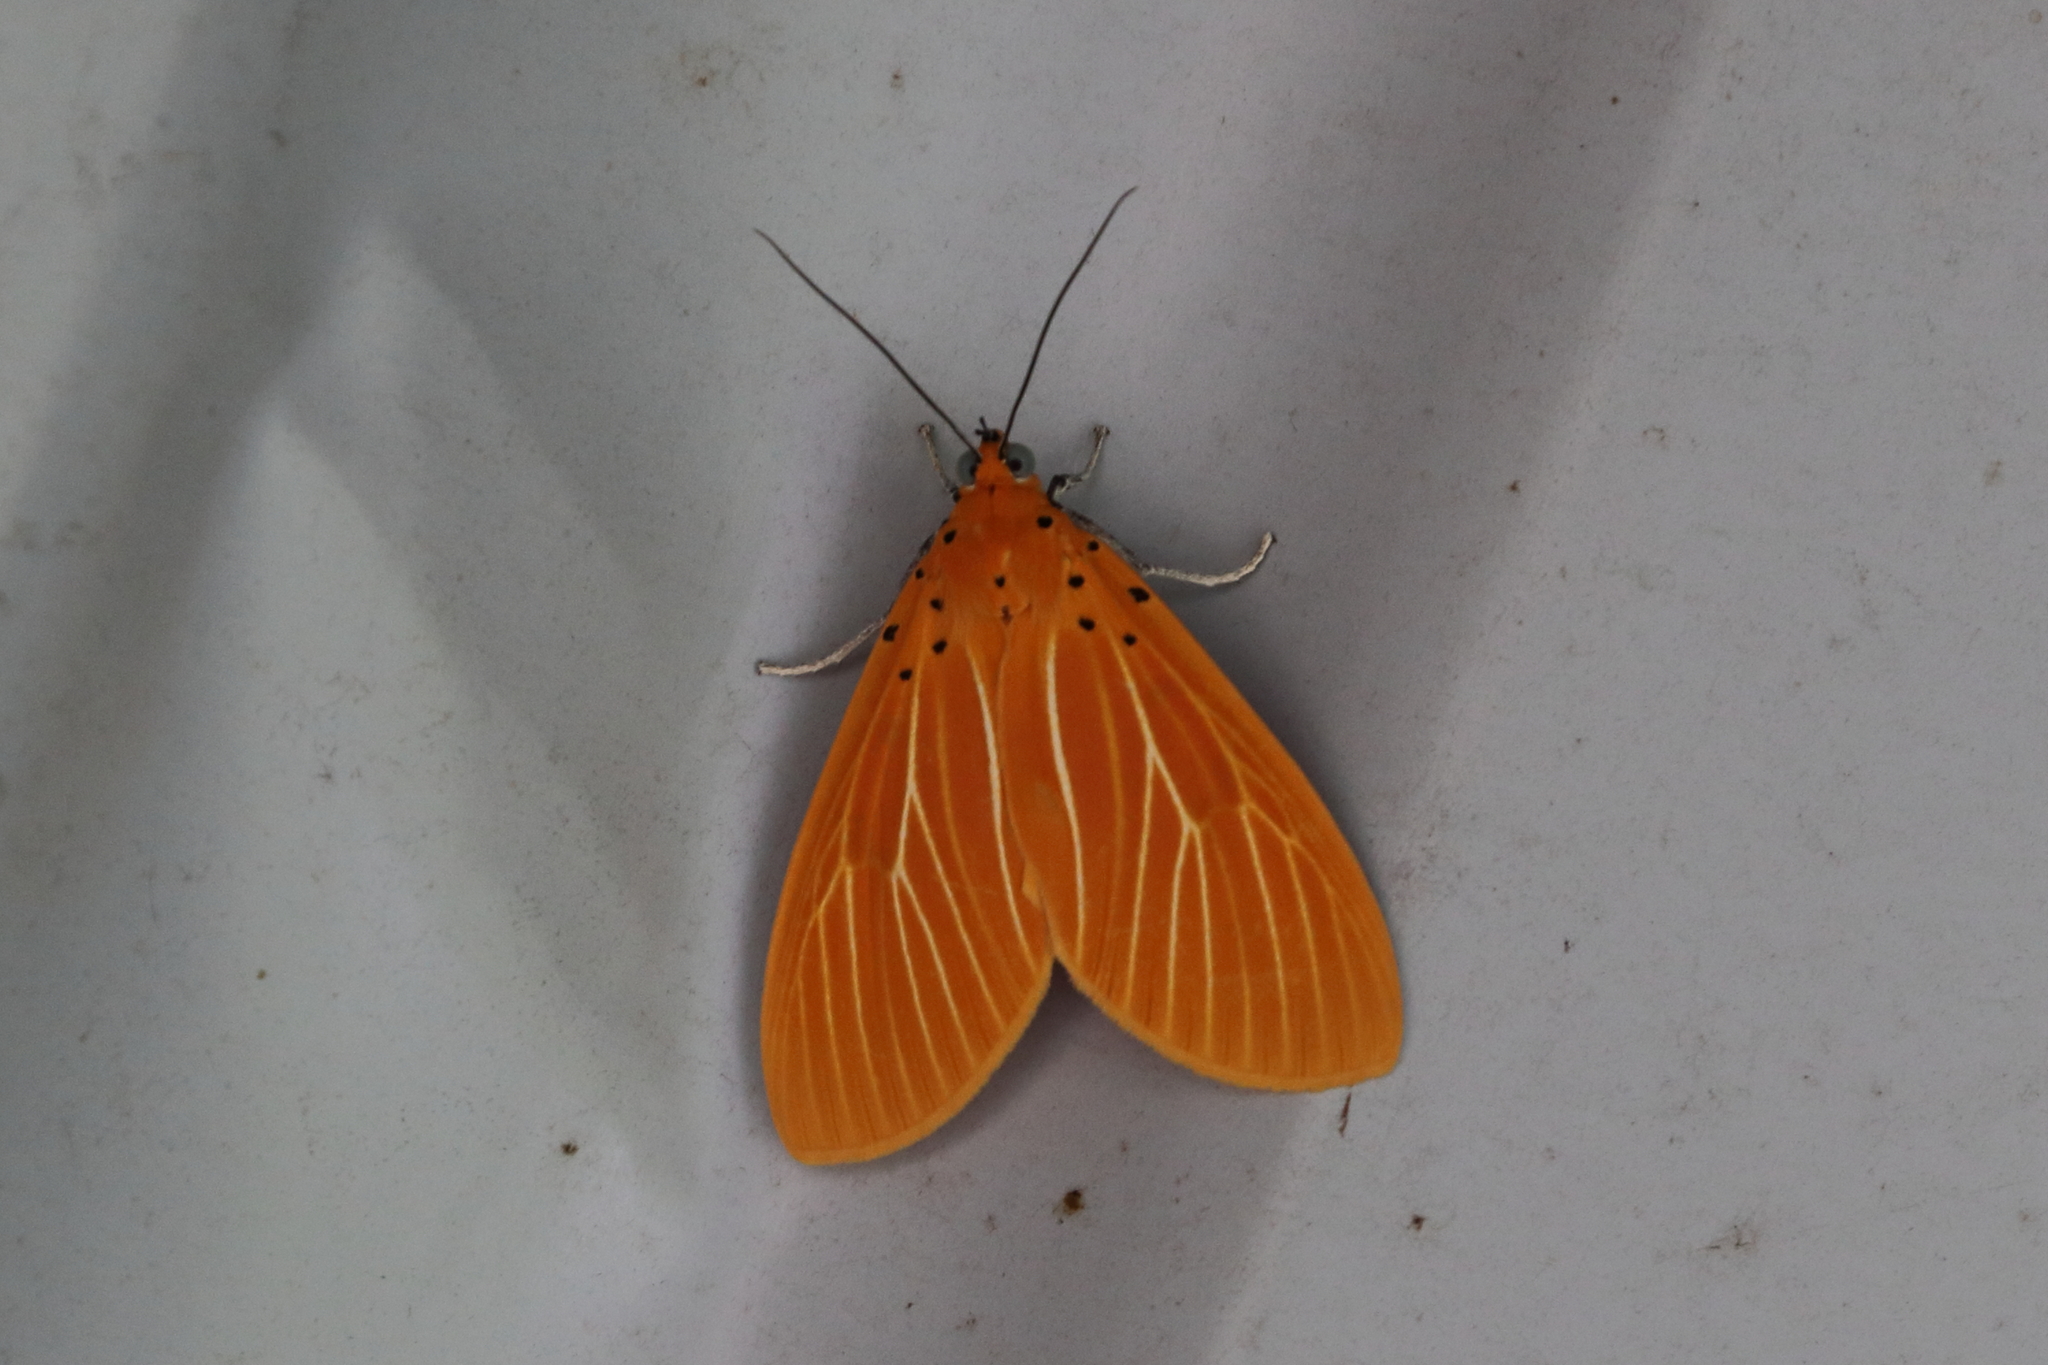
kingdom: Animalia
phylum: Arthropoda
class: Insecta
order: Lepidoptera
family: Erebidae
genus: Asota
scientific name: Asota egens
